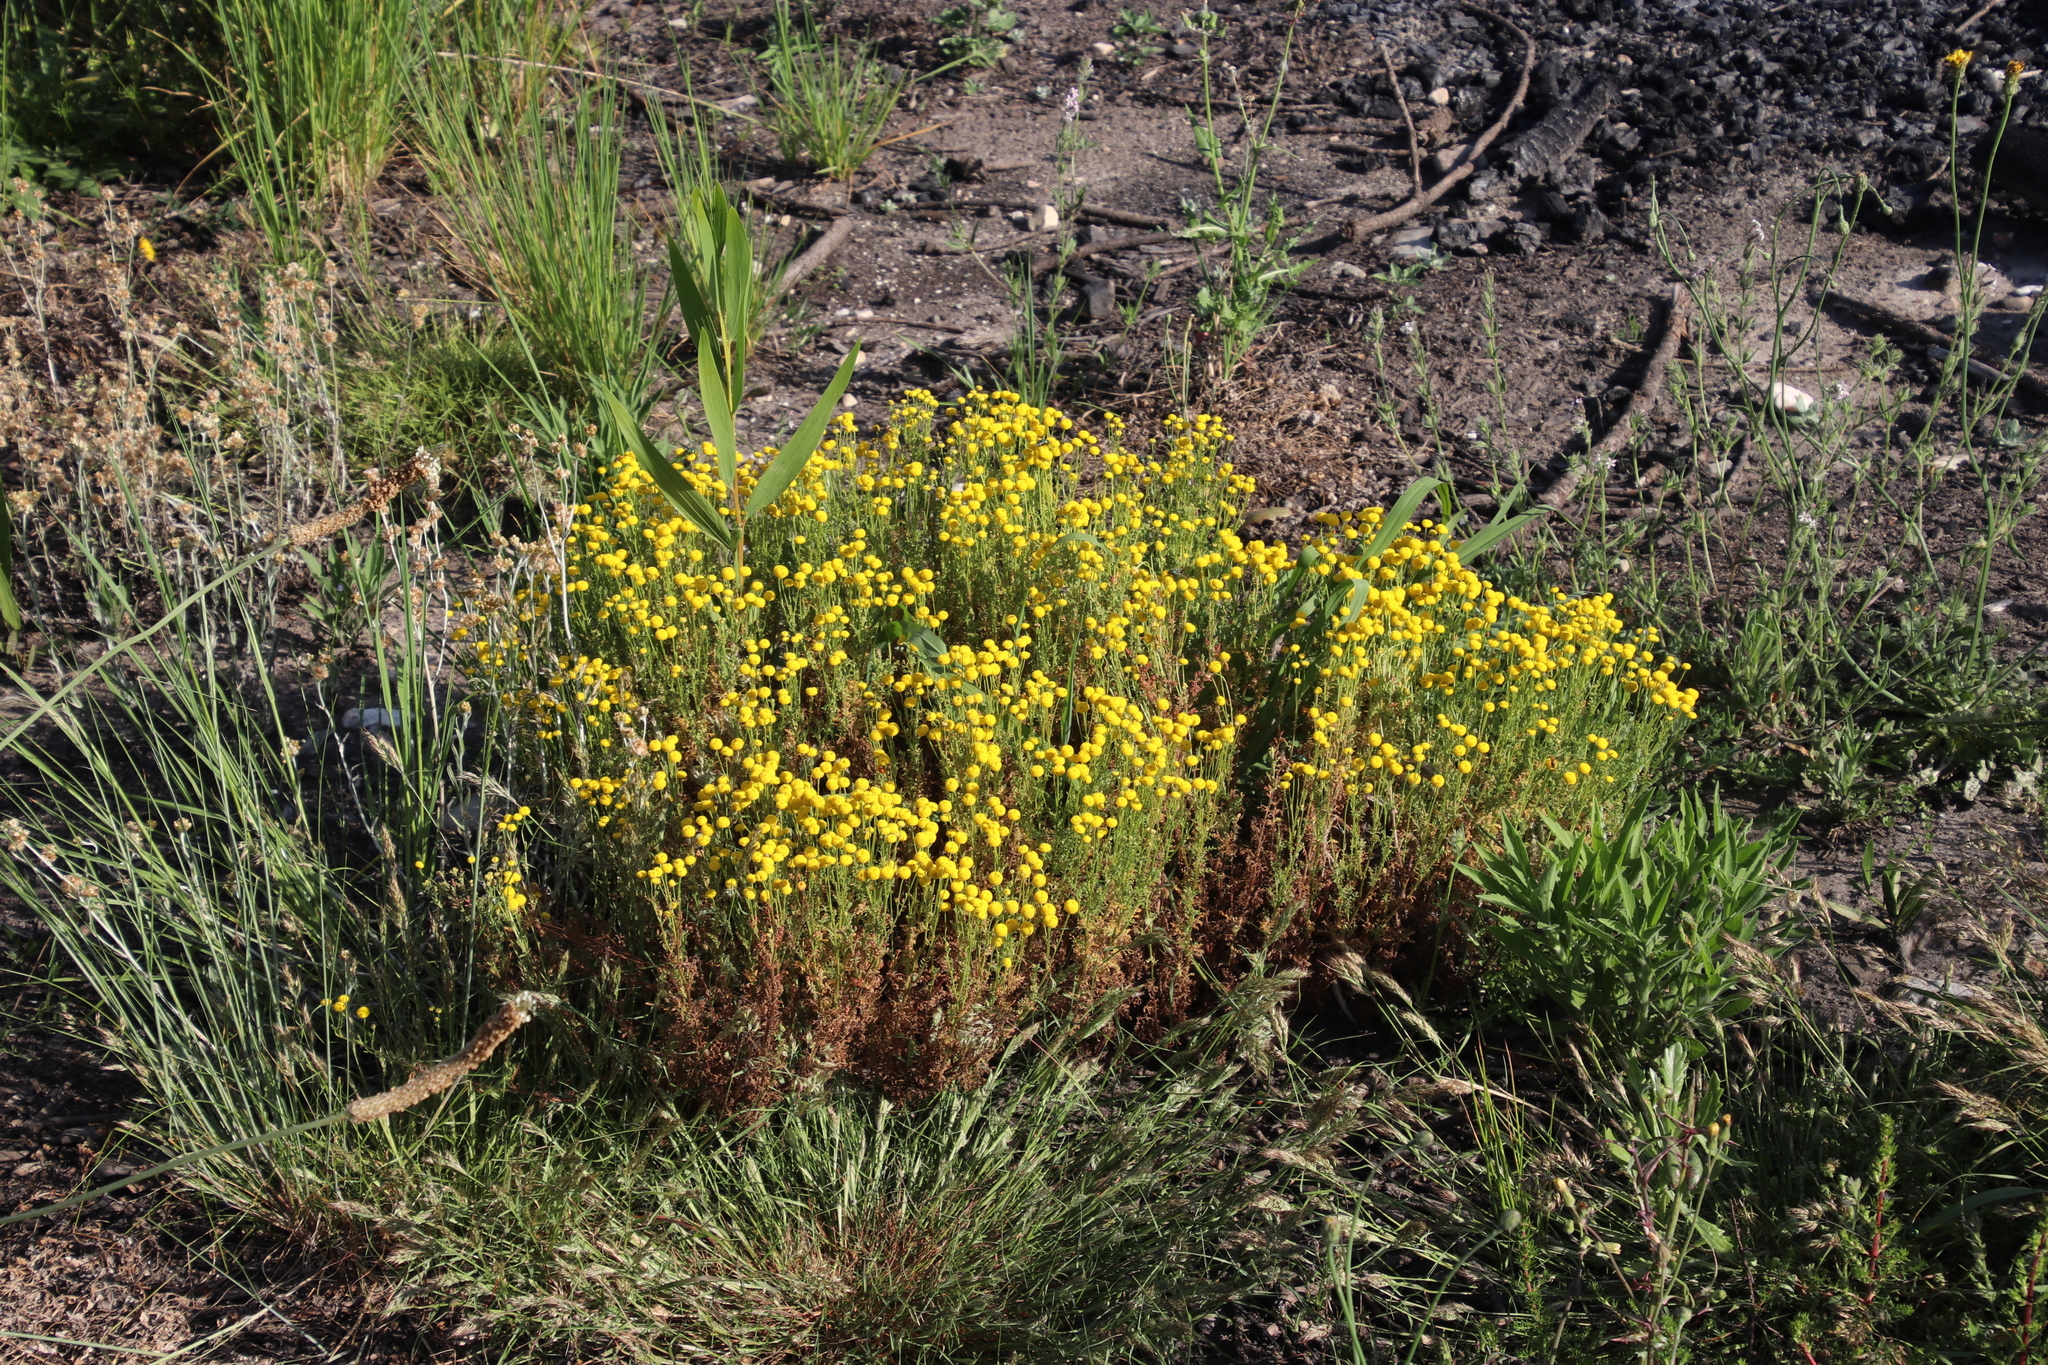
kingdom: Plantae
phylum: Tracheophyta
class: Magnoliopsida
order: Fabales
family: Fabaceae
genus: Acacia
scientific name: Acacia longifolia
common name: Sydney golden wattle
